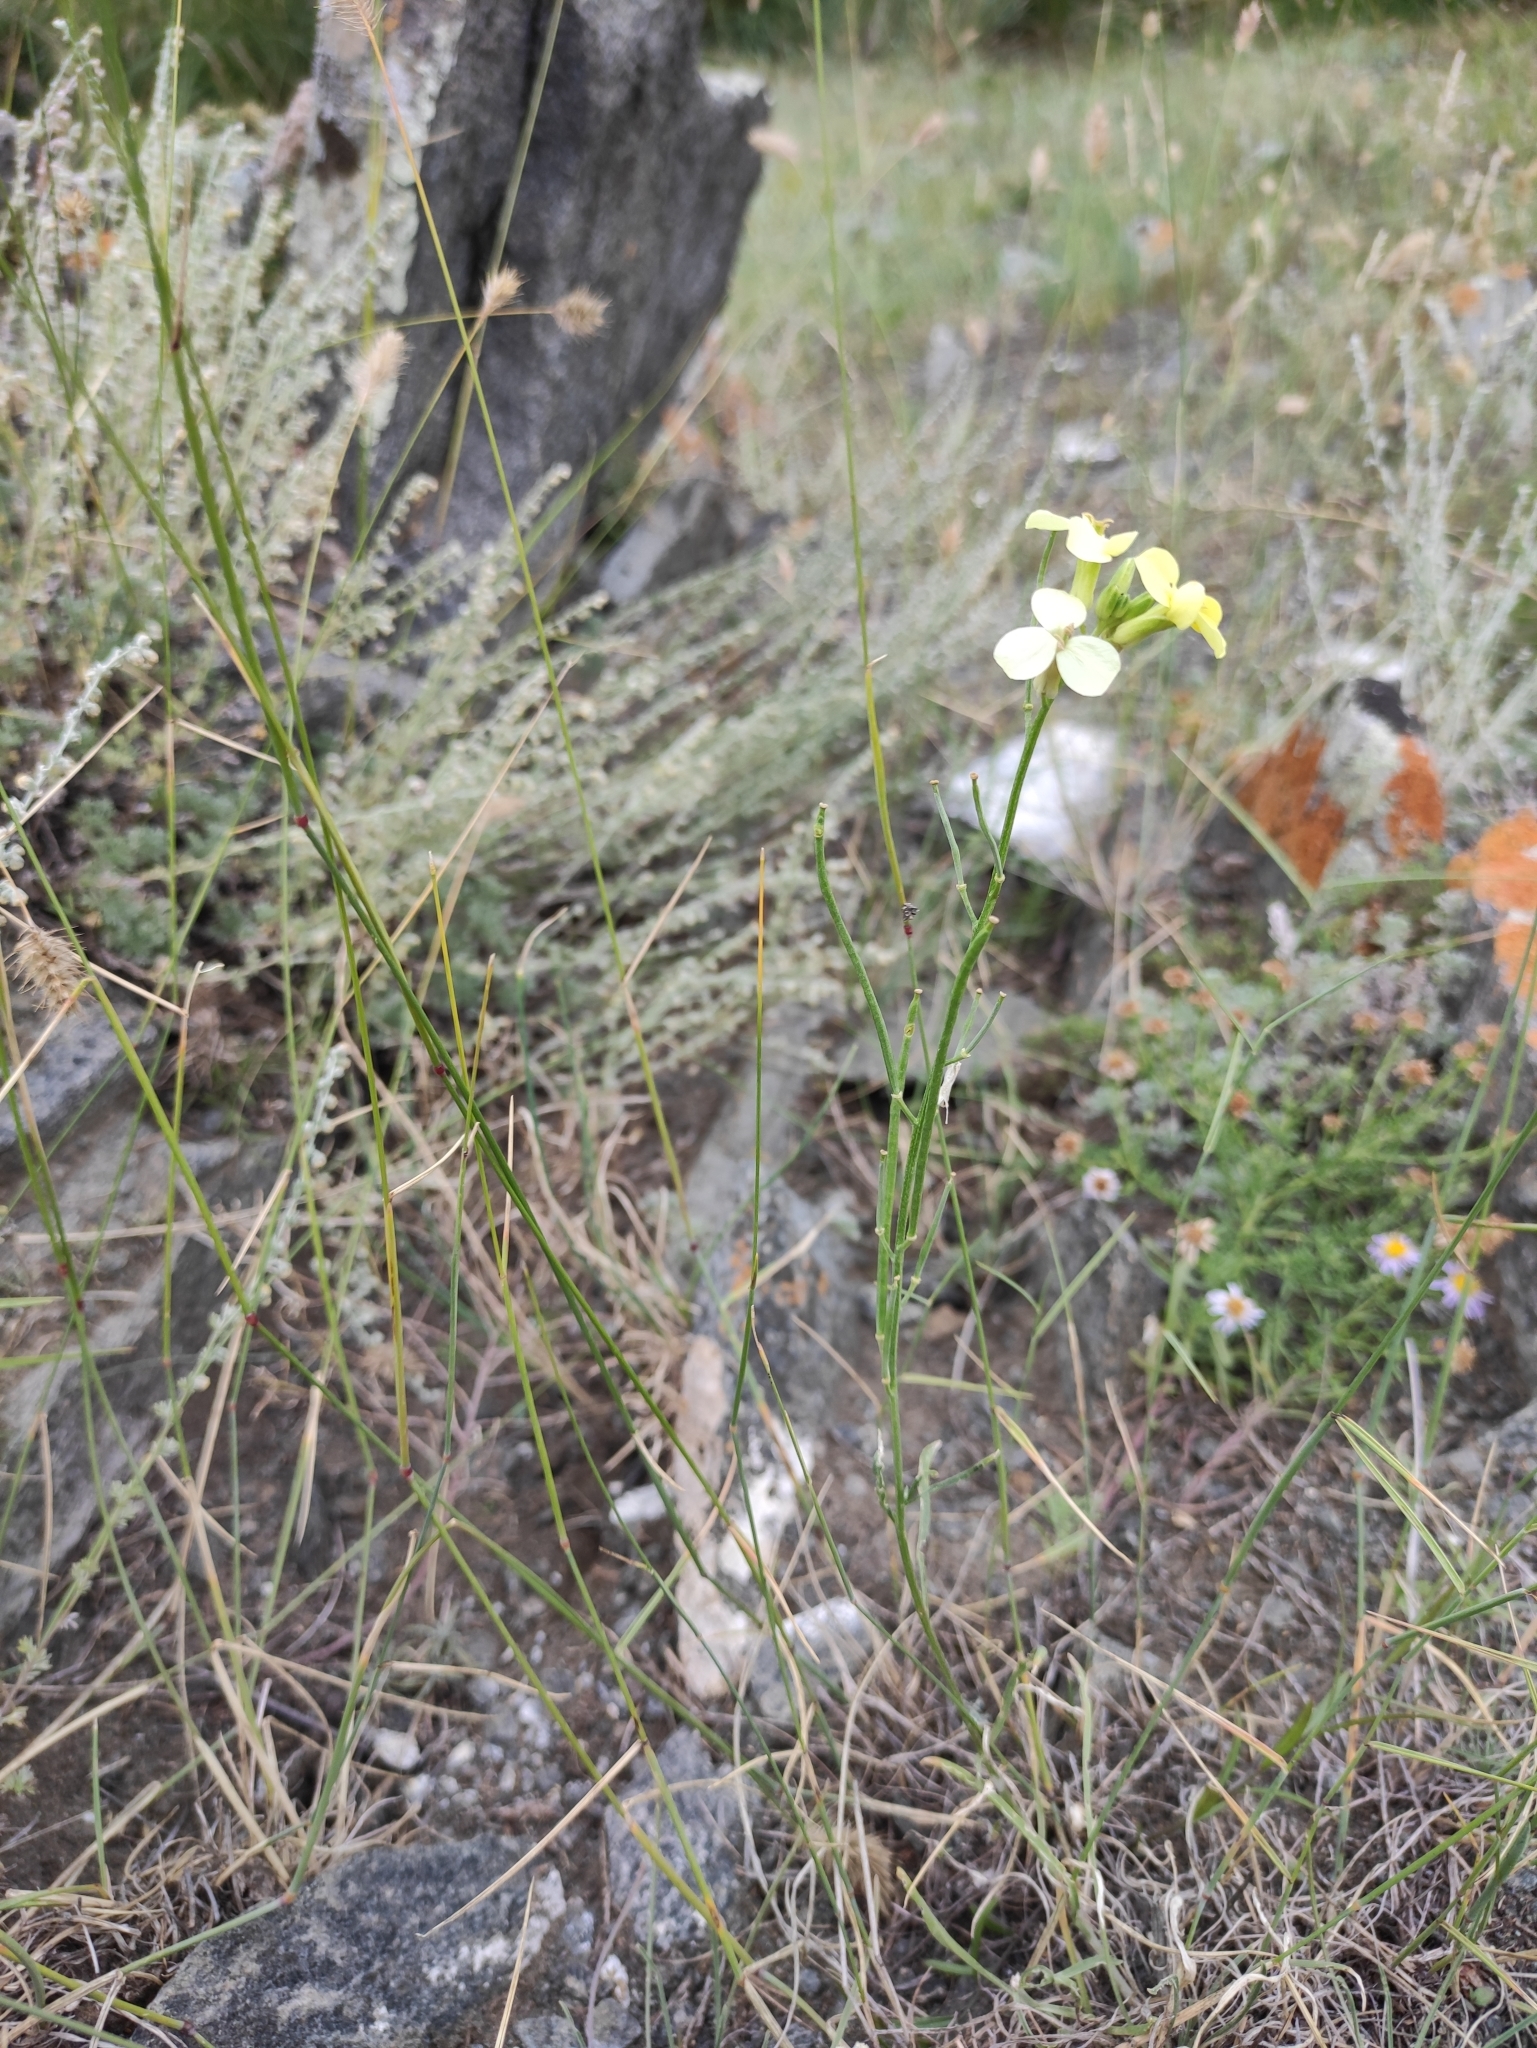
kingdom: Plantae
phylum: Tracheophyta
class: Magnoliopsida
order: Brassicales
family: Brassicaceae
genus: Erysimum
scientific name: Erysimum flavum
